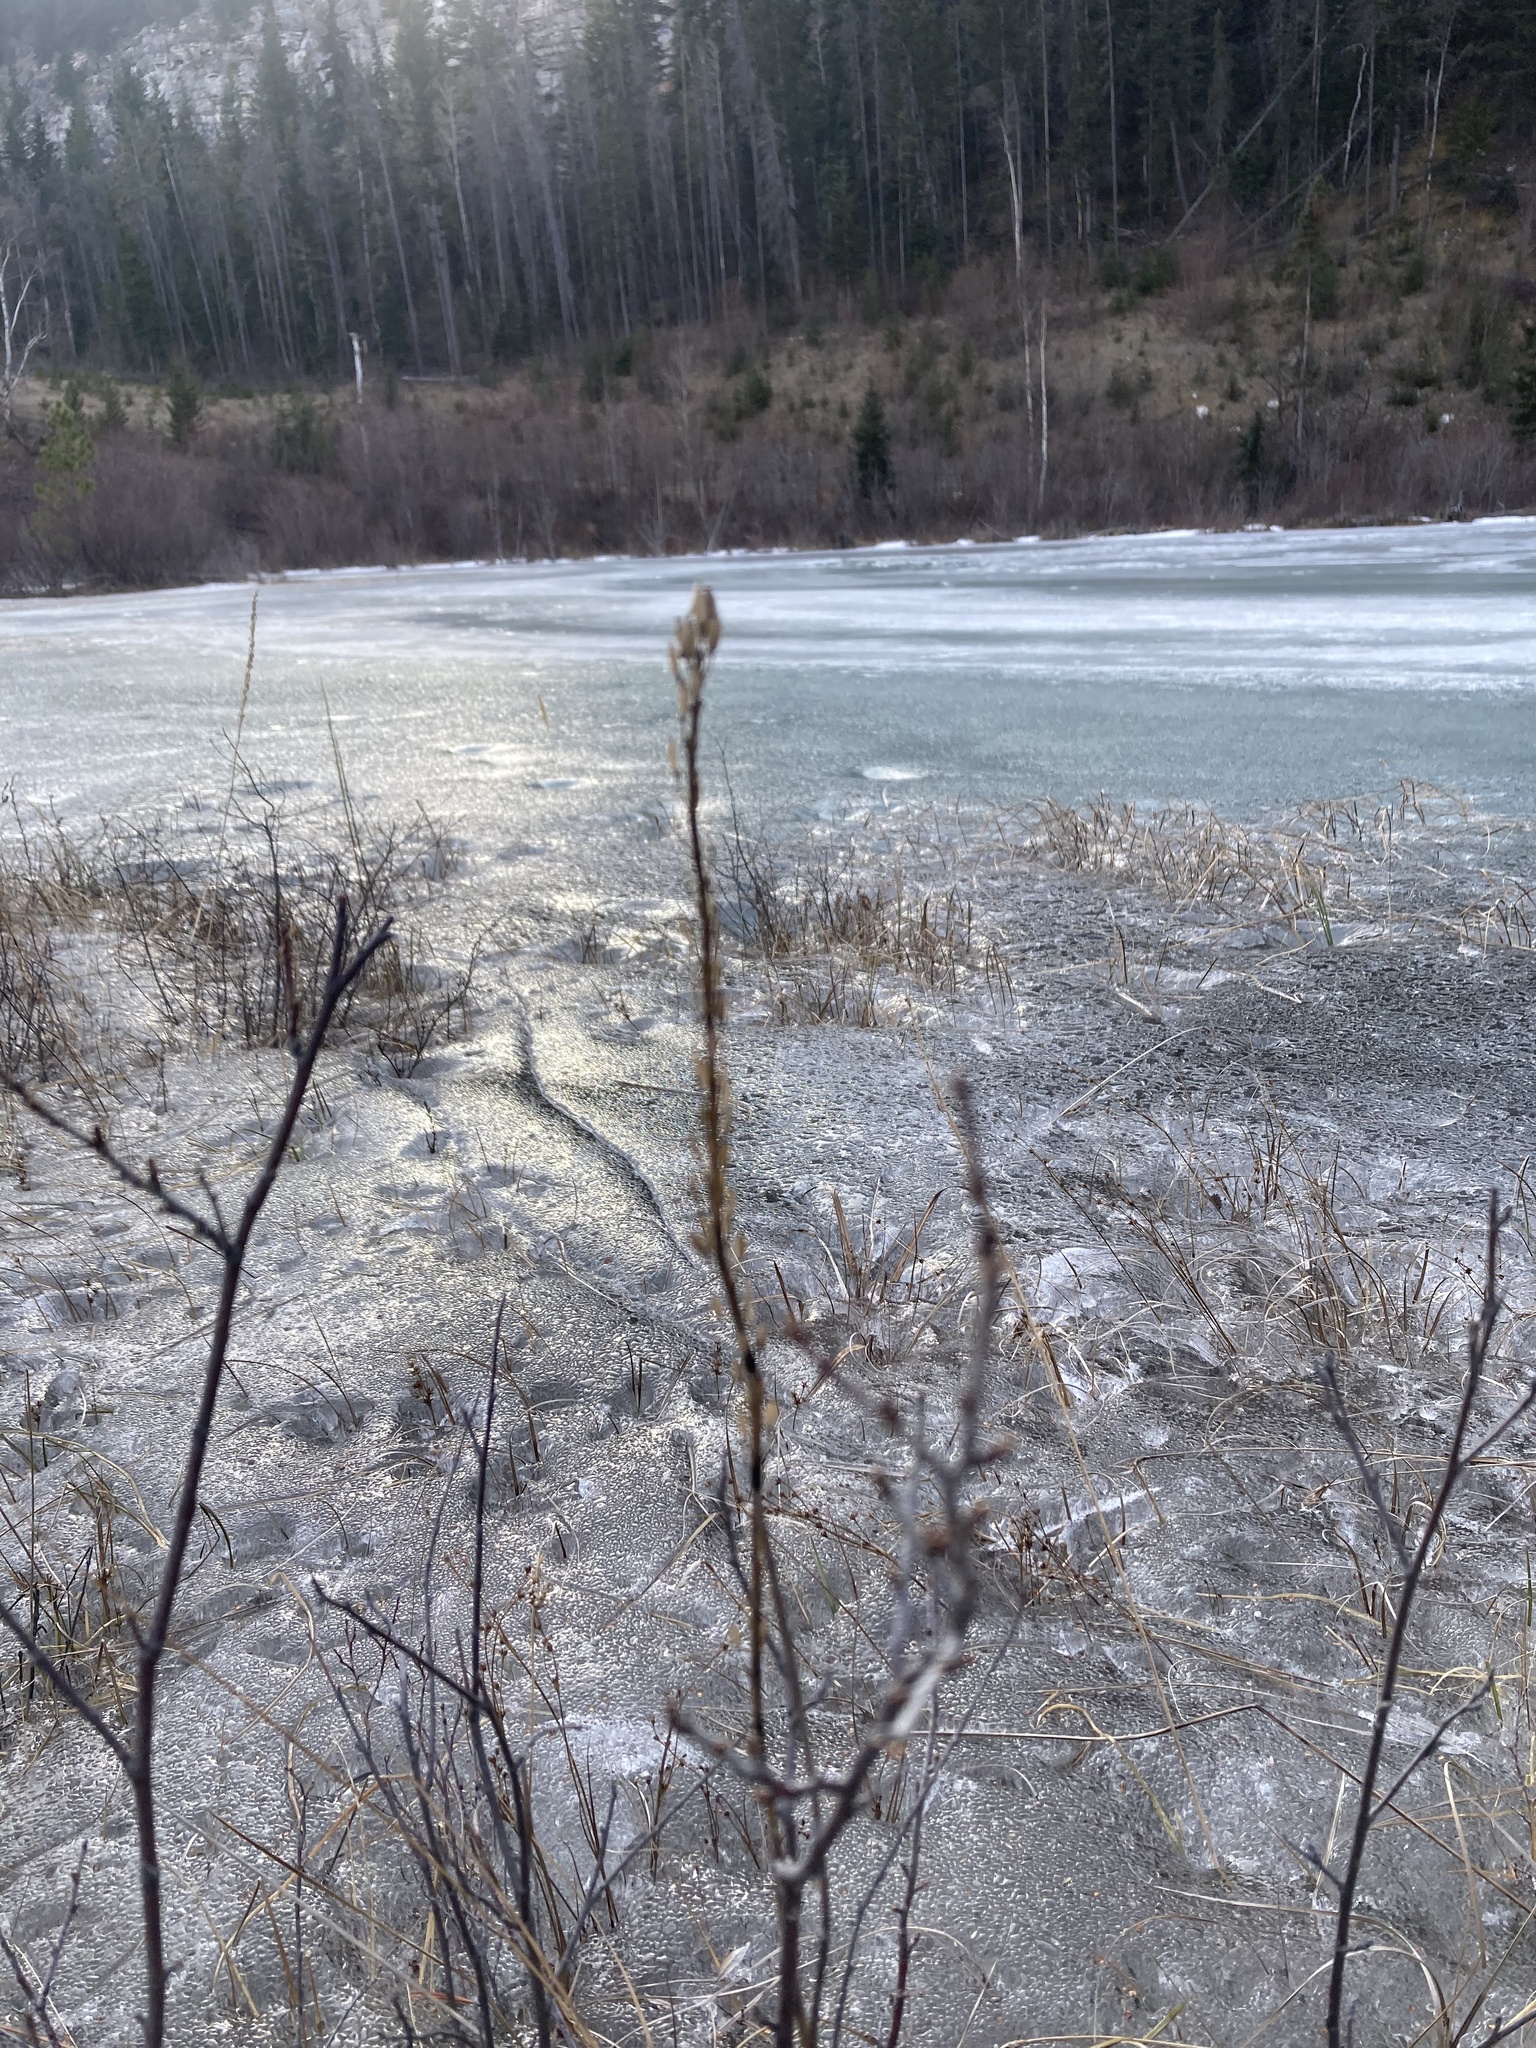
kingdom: Plantae
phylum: Tracheophyta
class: Liliopsida
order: Alismatales
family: Juncaginaceae
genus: Triglochin
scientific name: Triglochin maritima
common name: Sea arrowgrass
